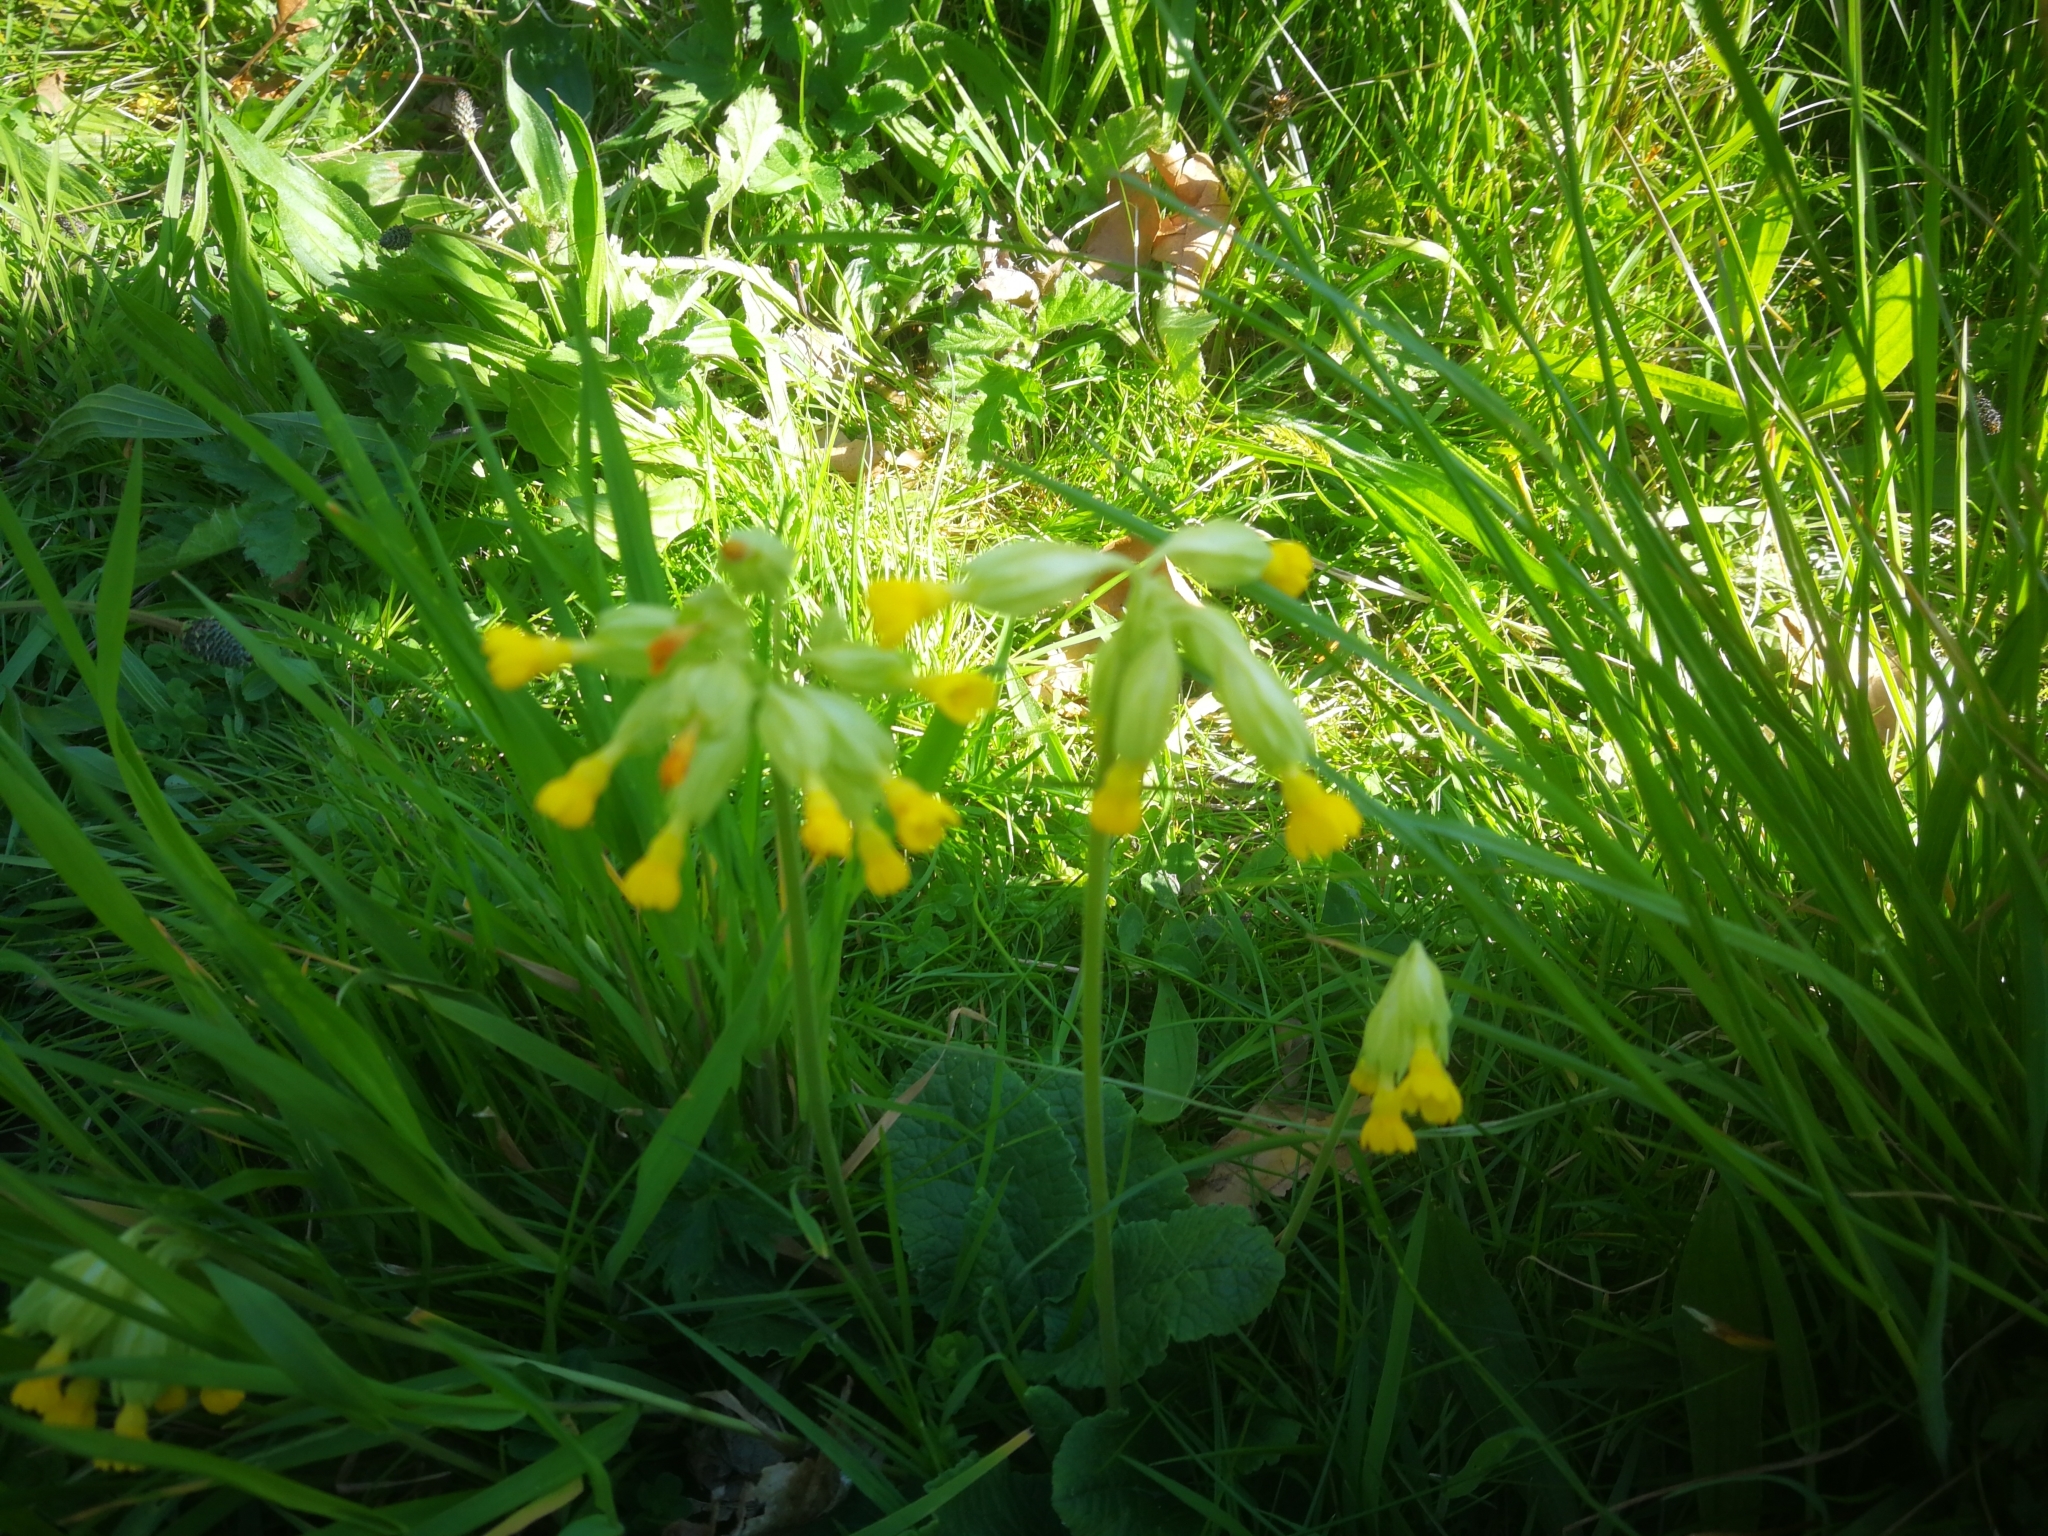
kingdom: Plantae
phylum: Tracheophyta
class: Magnoliopsida
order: Ericales
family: Primulaceae
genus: Primula
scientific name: Primula veris
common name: Cowslip
